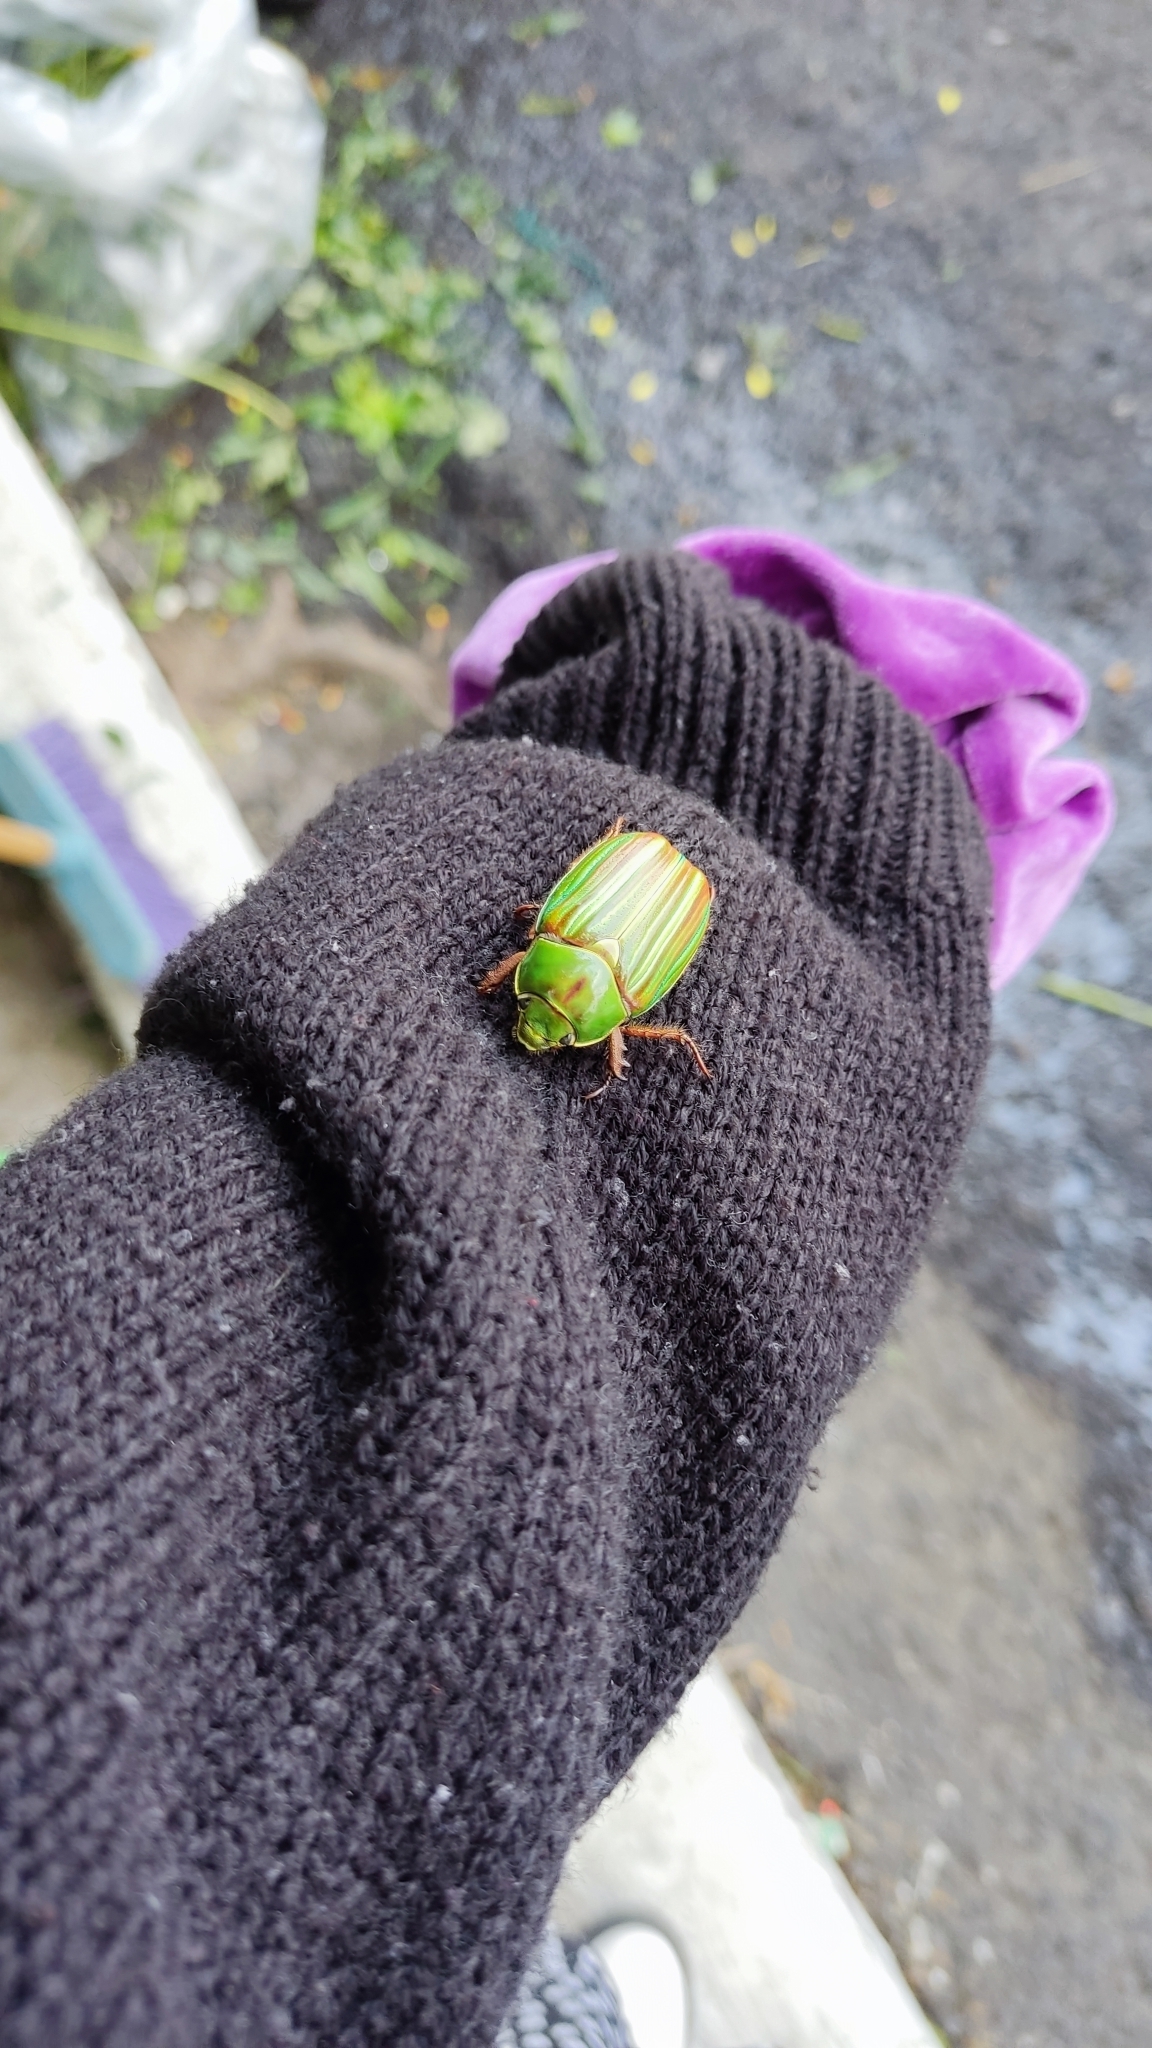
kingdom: Animalia
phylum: Arthropoda
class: Insecta
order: Coleoptera
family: Scarabaeidae
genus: Chrysina
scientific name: Chrysina adelaida
